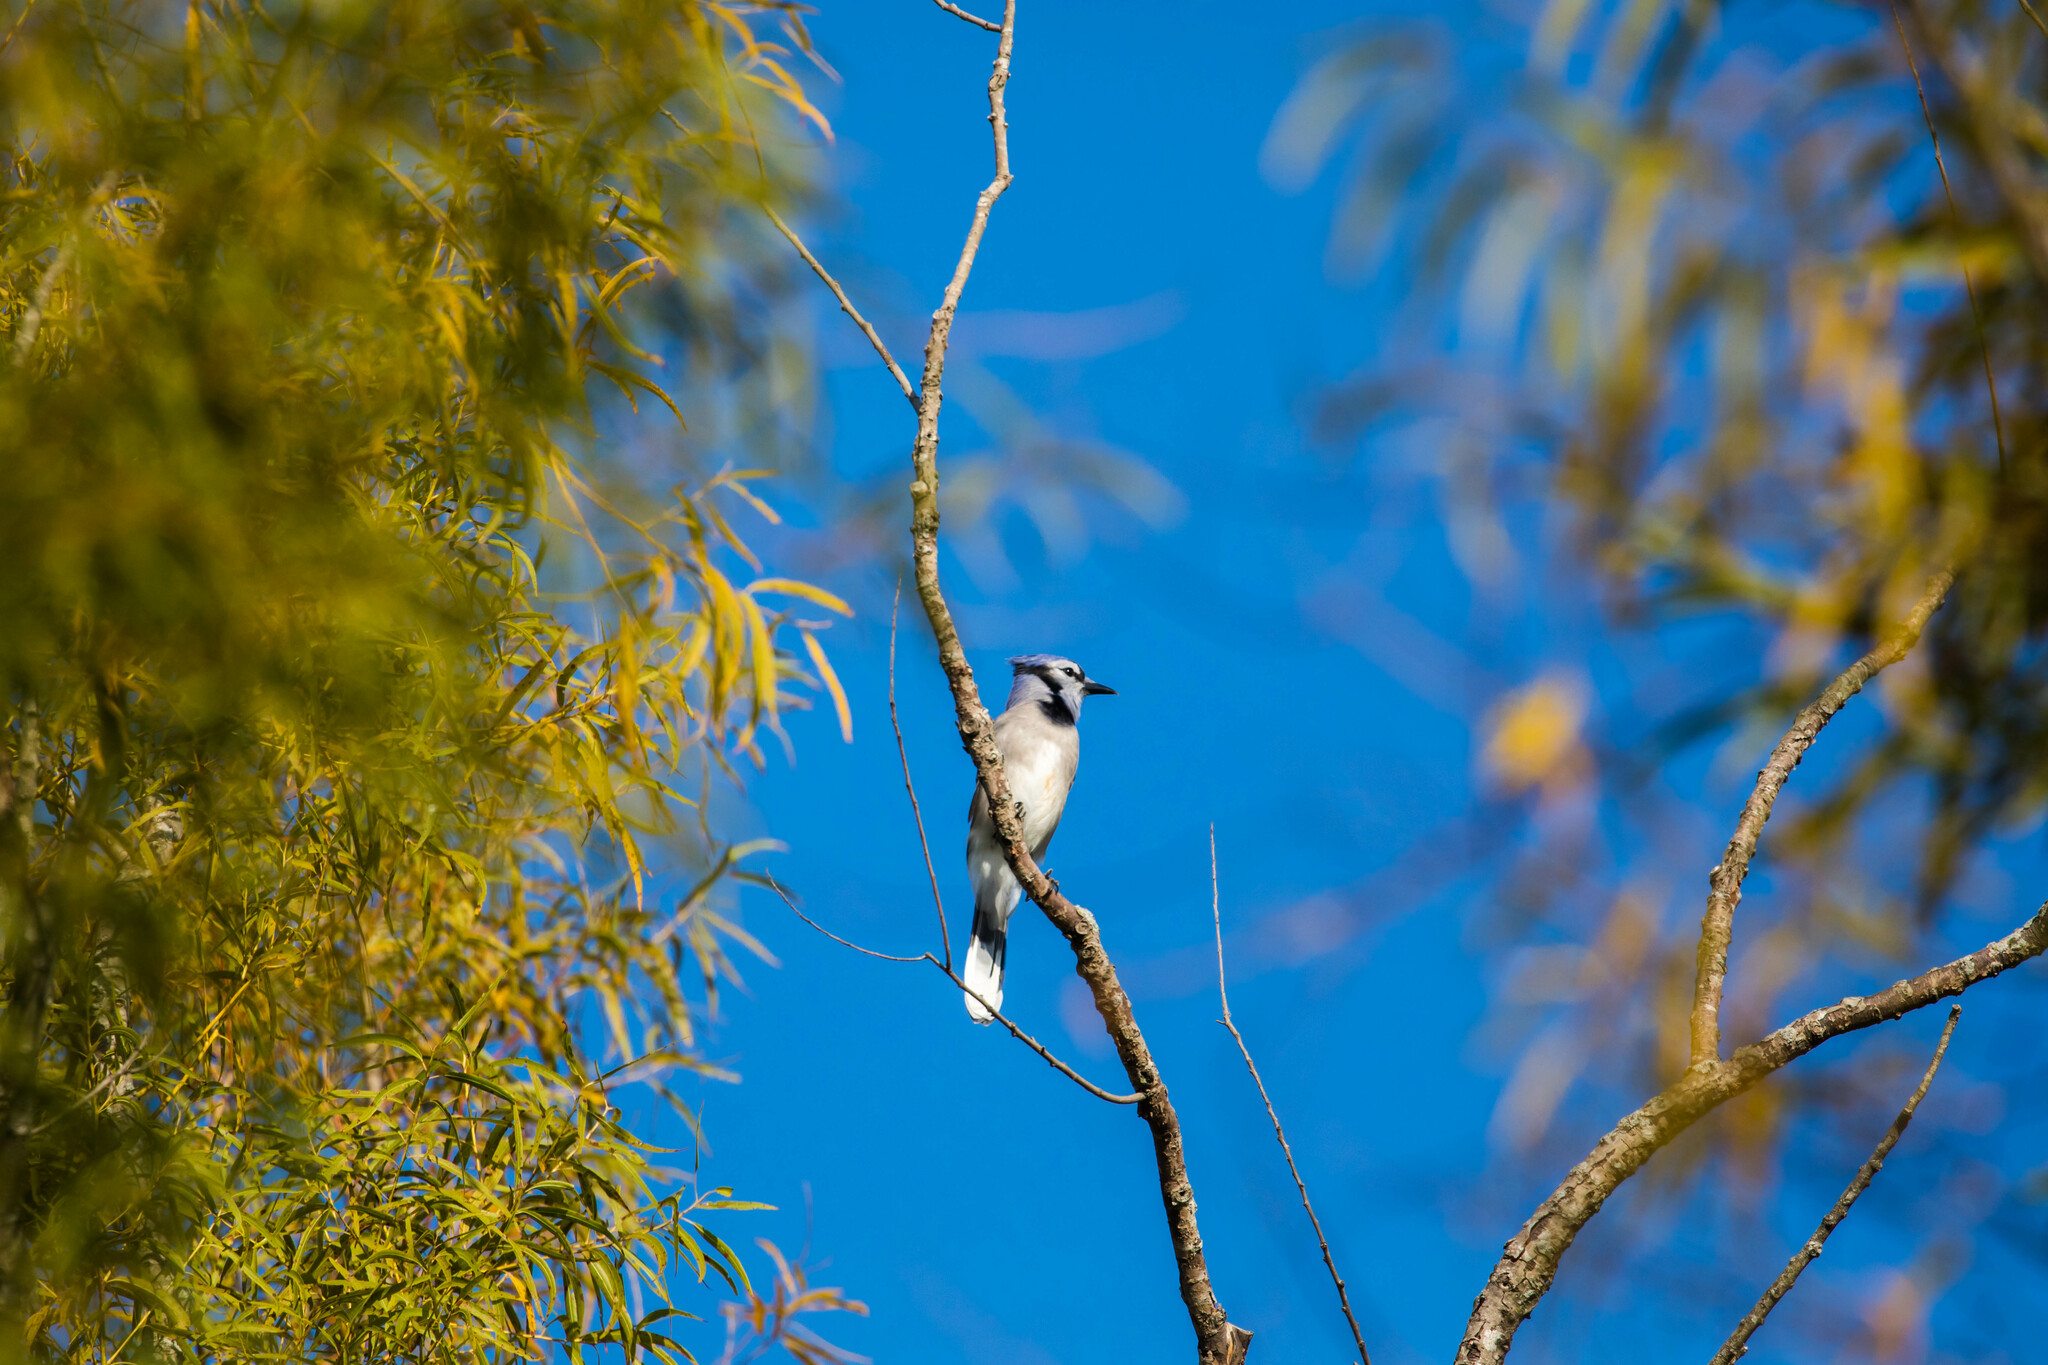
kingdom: Animalia
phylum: Chordata
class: Aves
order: Passeriformes
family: Corvidae
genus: Cyanocitta
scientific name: Cyanocitta cristata
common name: Blue jay
